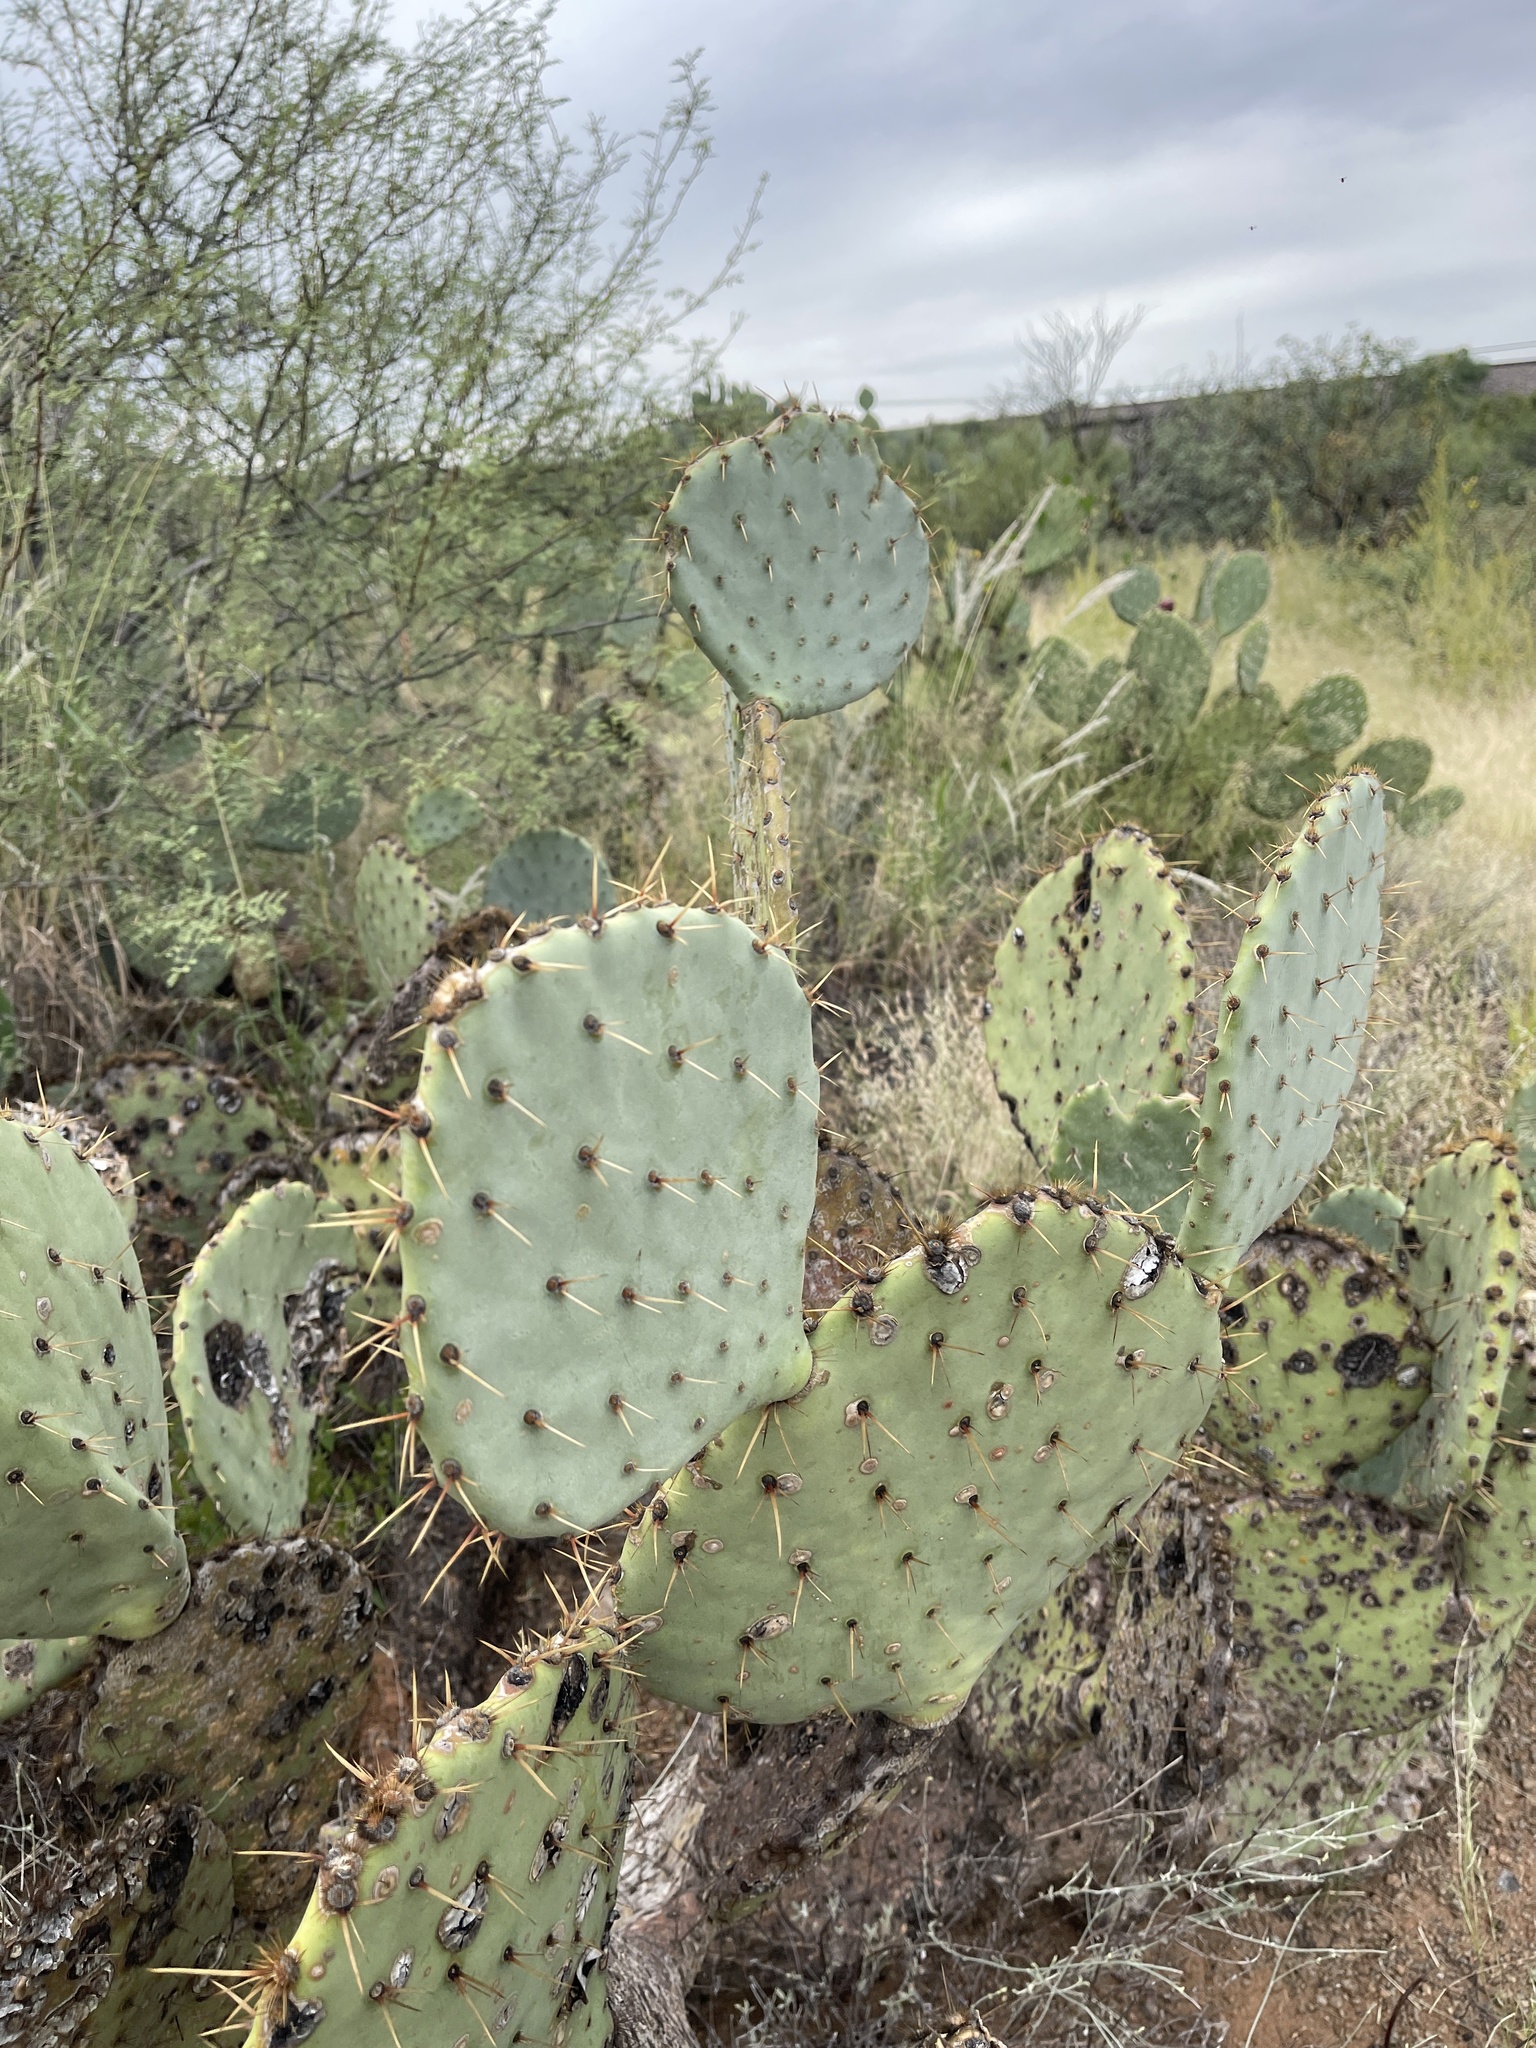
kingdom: Plantae
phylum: Tracheophyta
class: Magnoliopsida
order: Caryophyllales
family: Cactaceae
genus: Opuntia
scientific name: Opuntia engelmannii
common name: Cactus-apple
